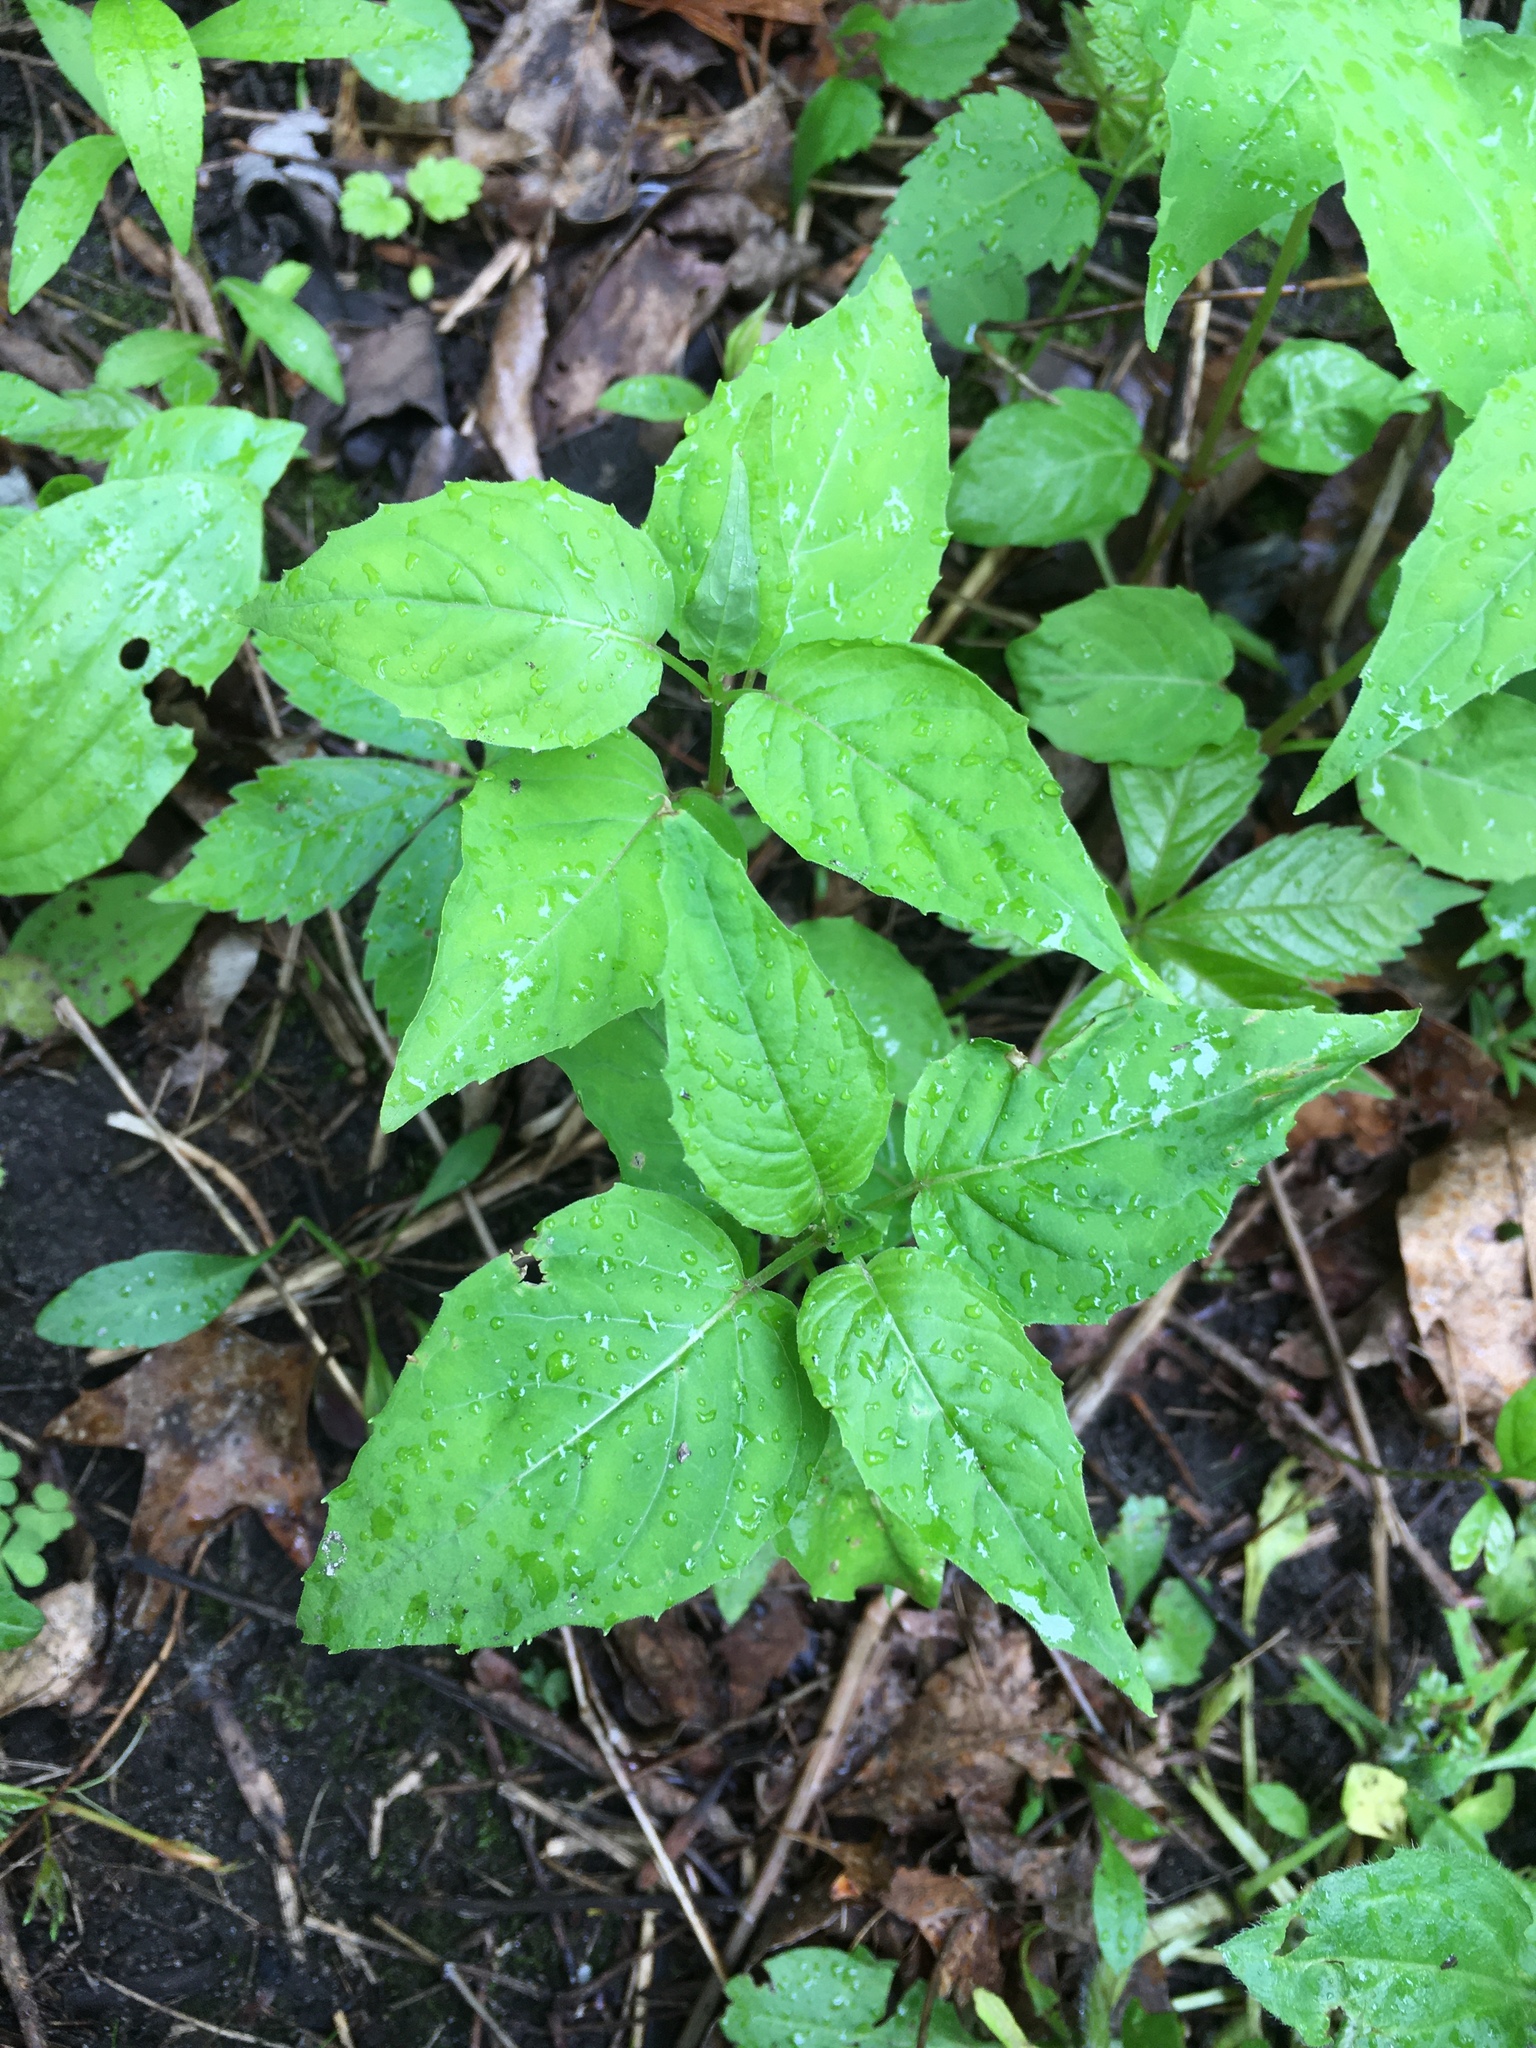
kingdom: Plantae
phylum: Tracheophyta
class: Magnoliopsida
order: Myrtales
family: Onagraceae
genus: Circaea
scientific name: Circaea canadensis
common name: Broad-leaved enchanter's nightshade
